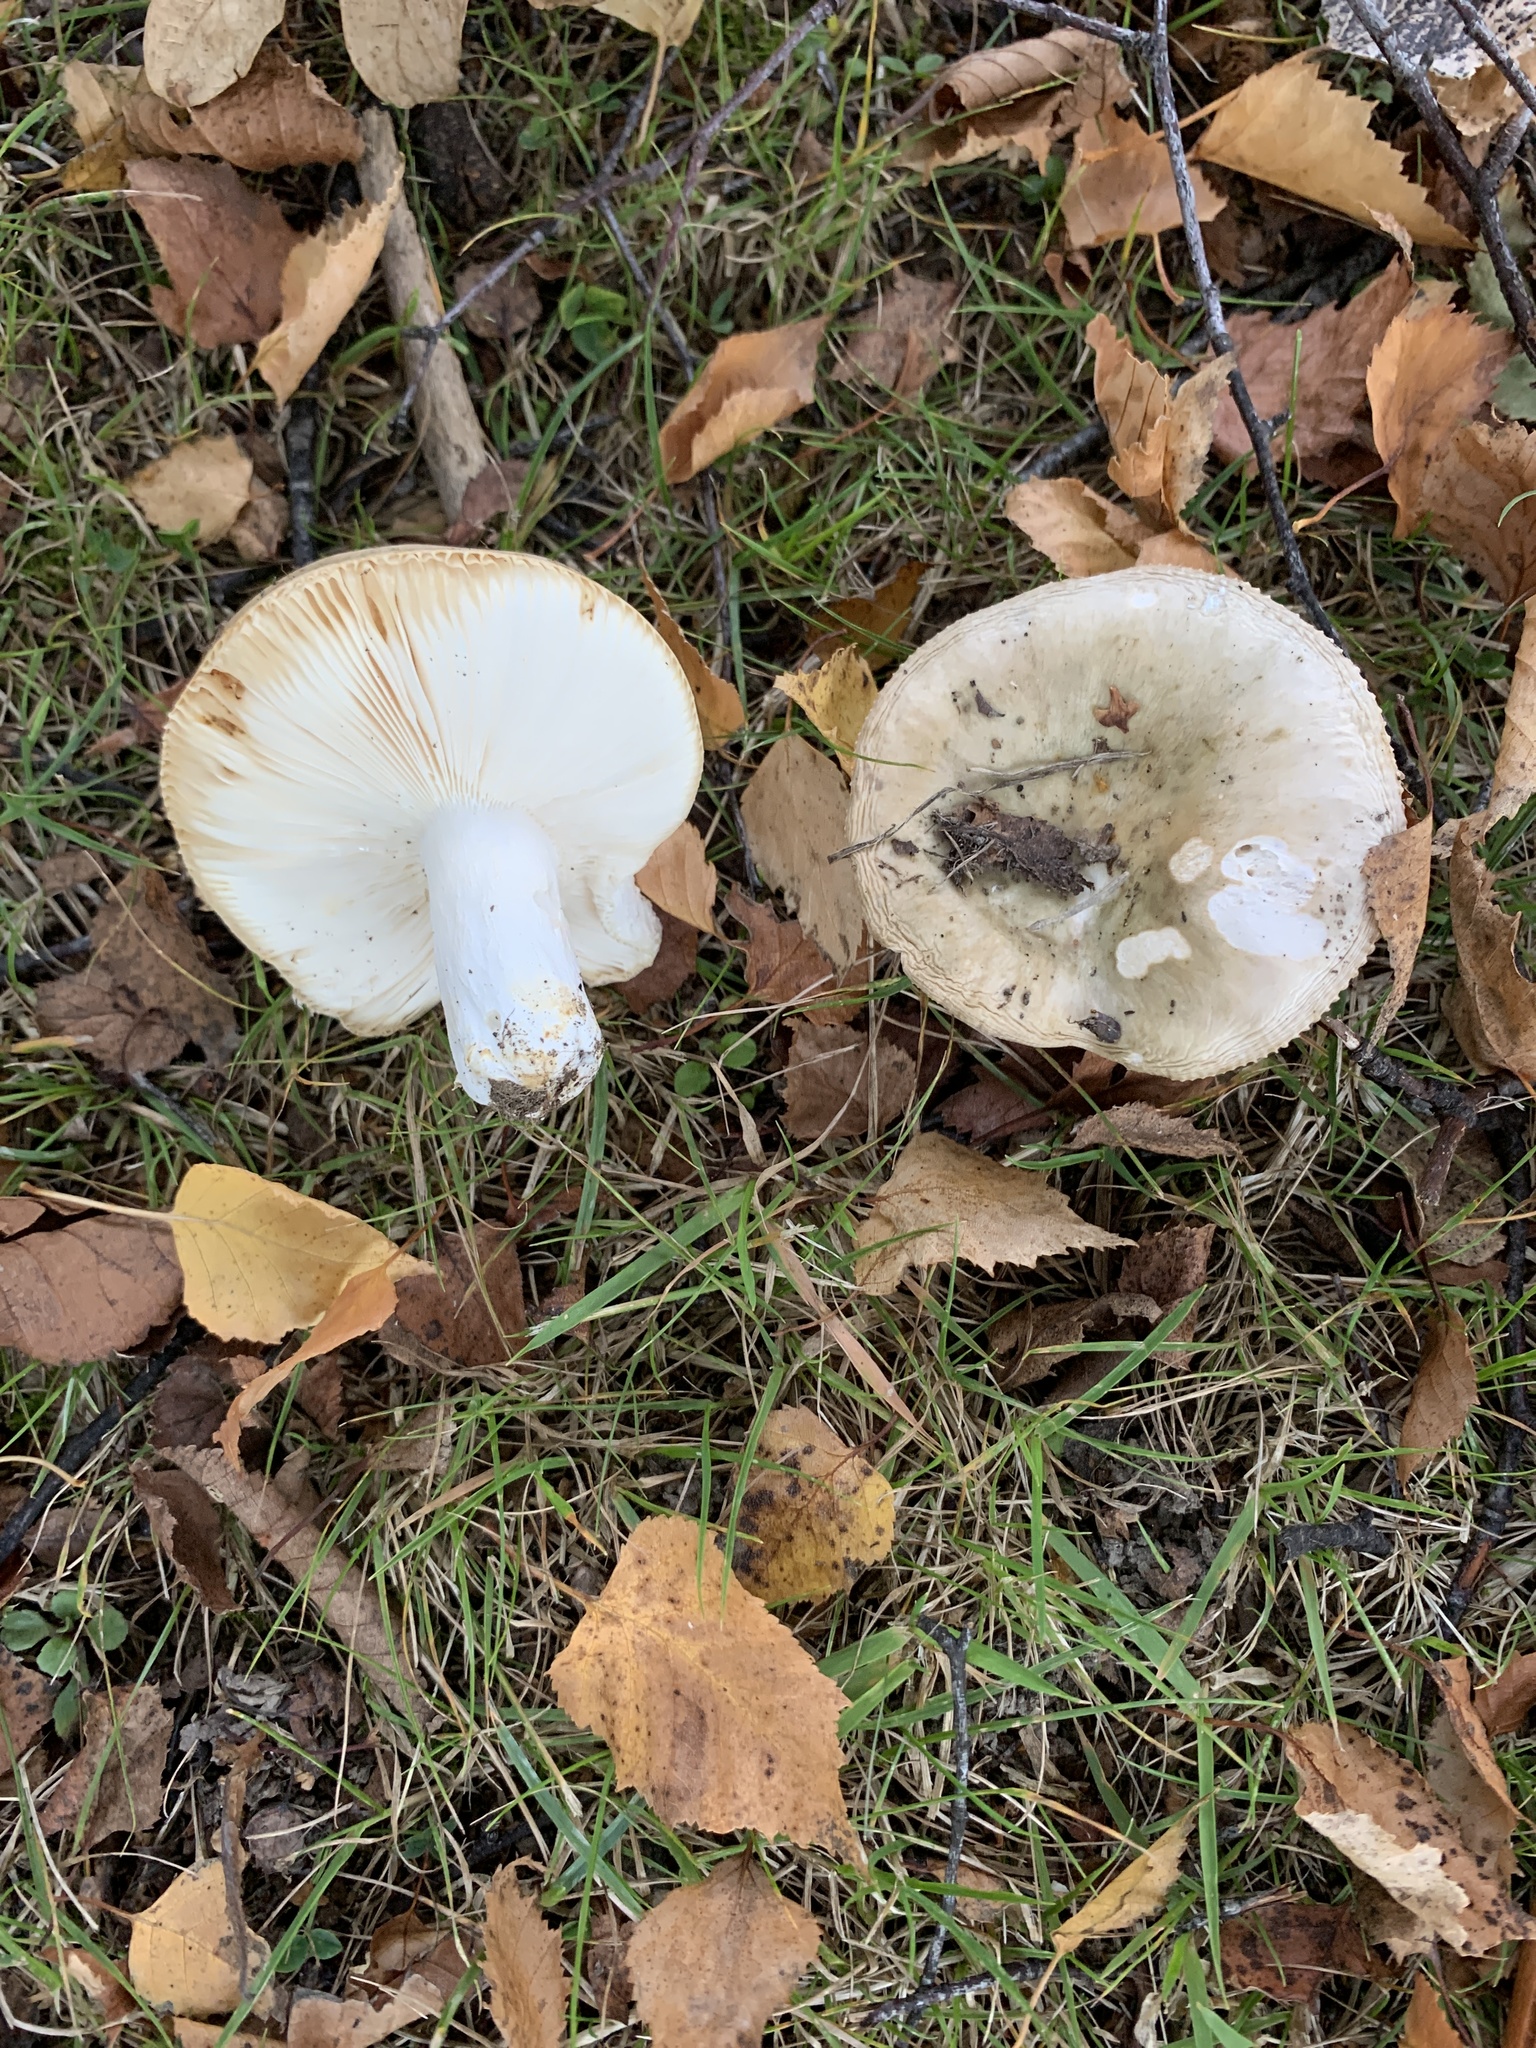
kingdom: Fungi
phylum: Basidiomycota
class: Agaricomycetes
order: Russulales
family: Russulaceae
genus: Russula
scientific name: Russula grisea
